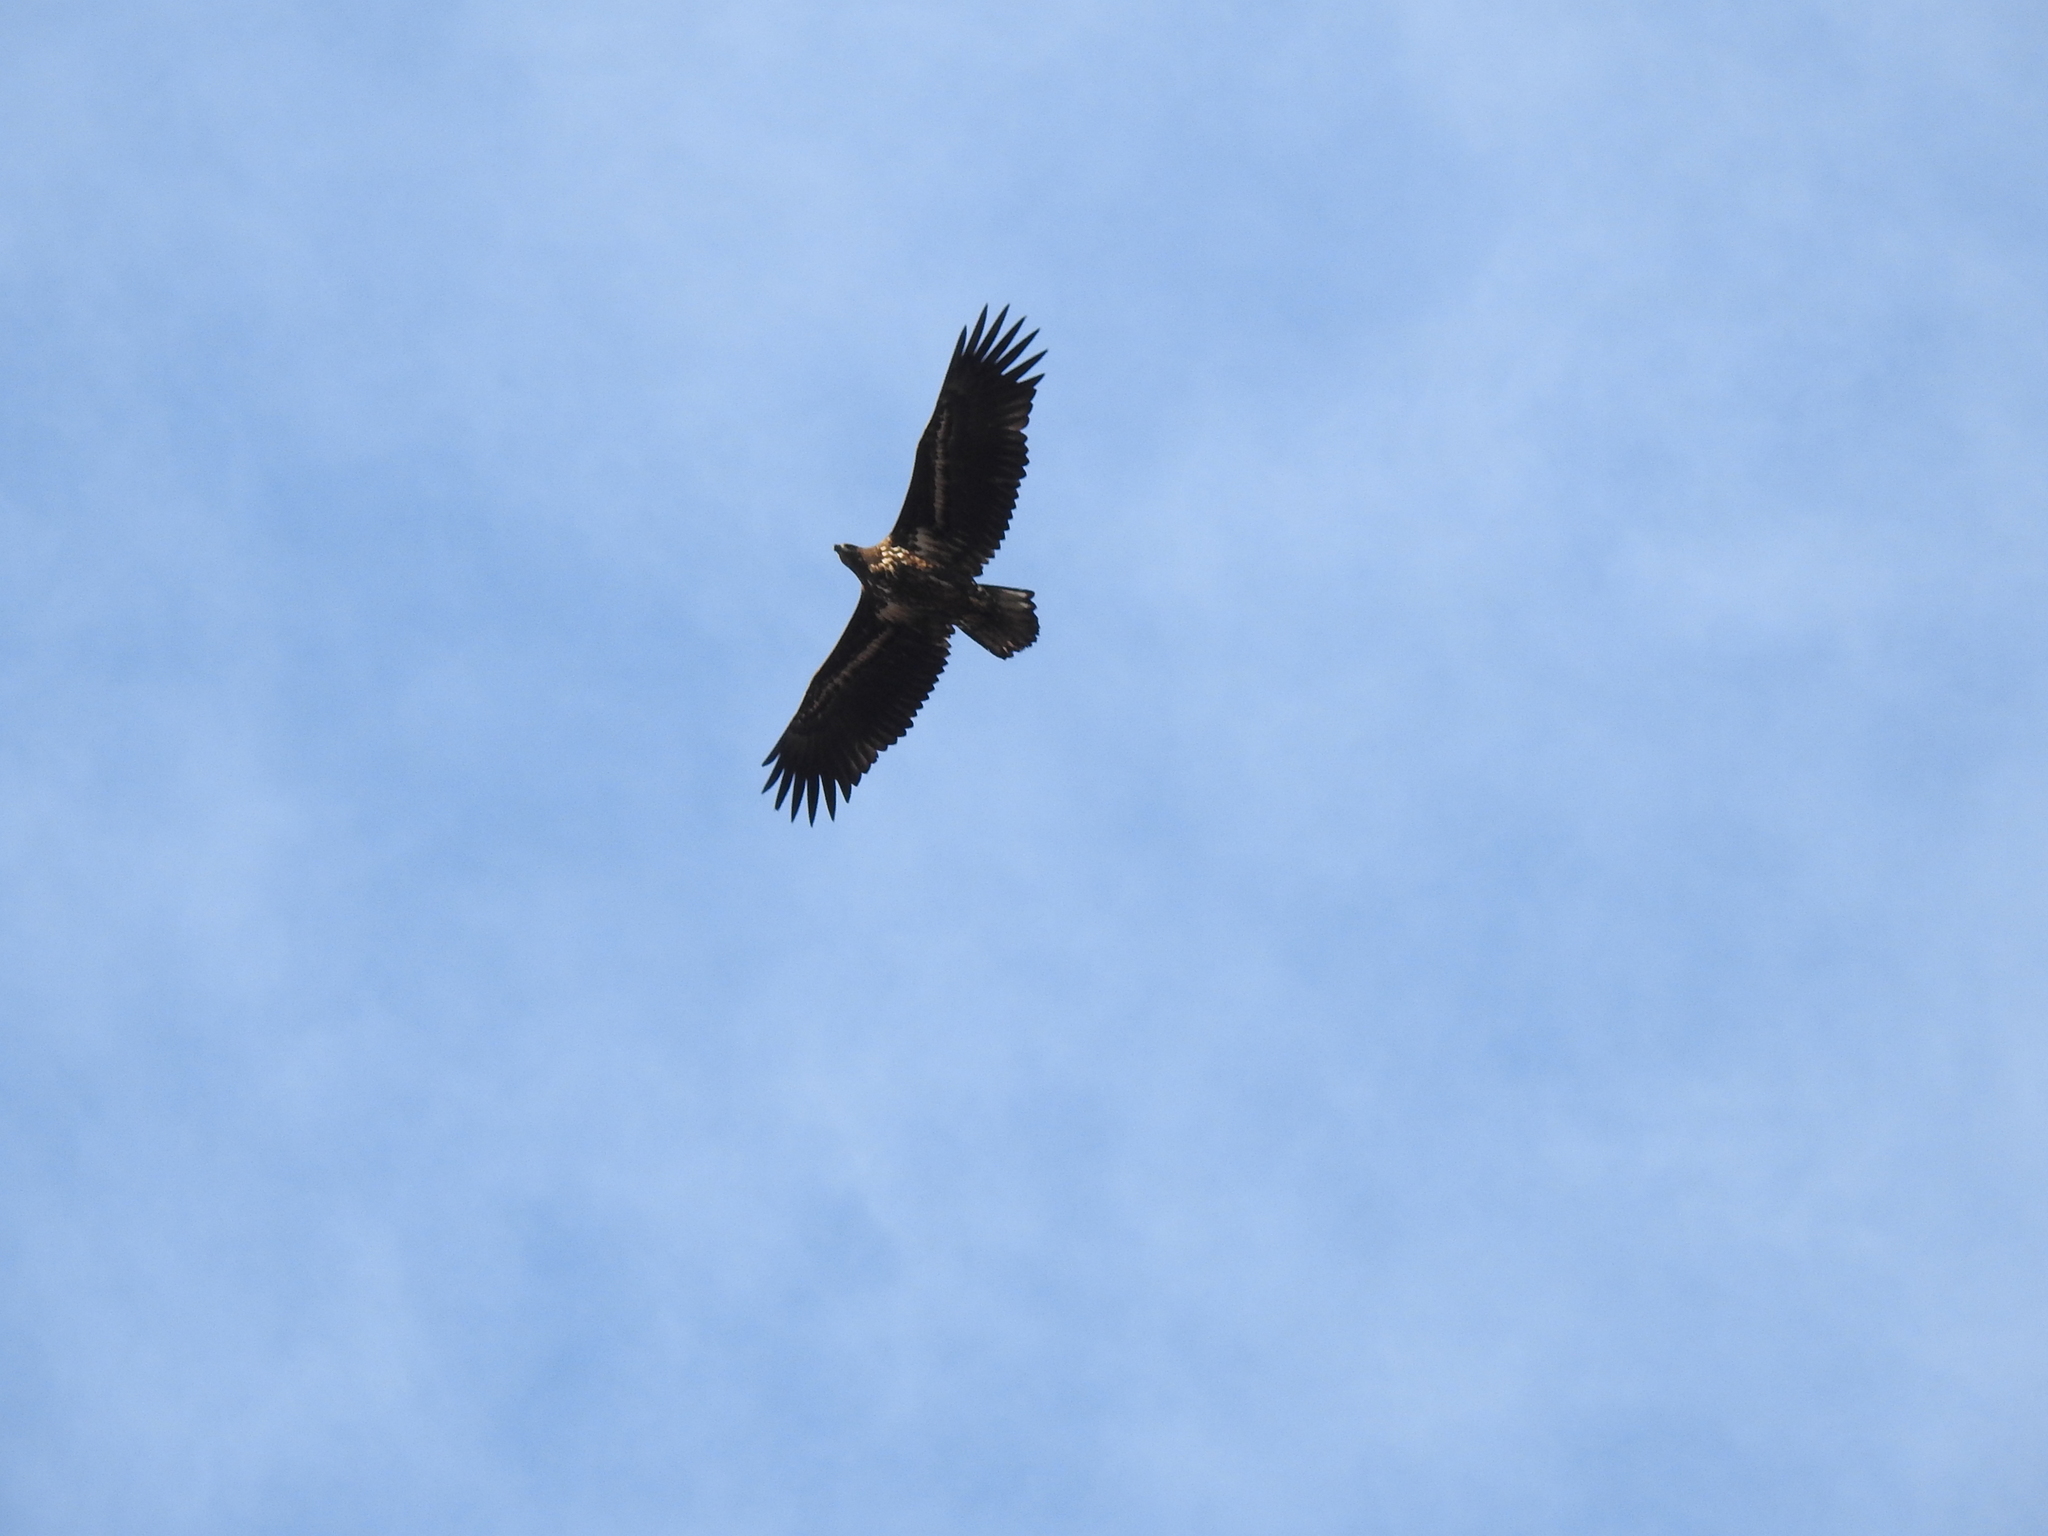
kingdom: Animalia
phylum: Chordata
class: Aves
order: Accipitriformes
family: Accipitridae
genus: Haliaeetus
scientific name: Haliaeetus albicilla
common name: White-tailed eagle
